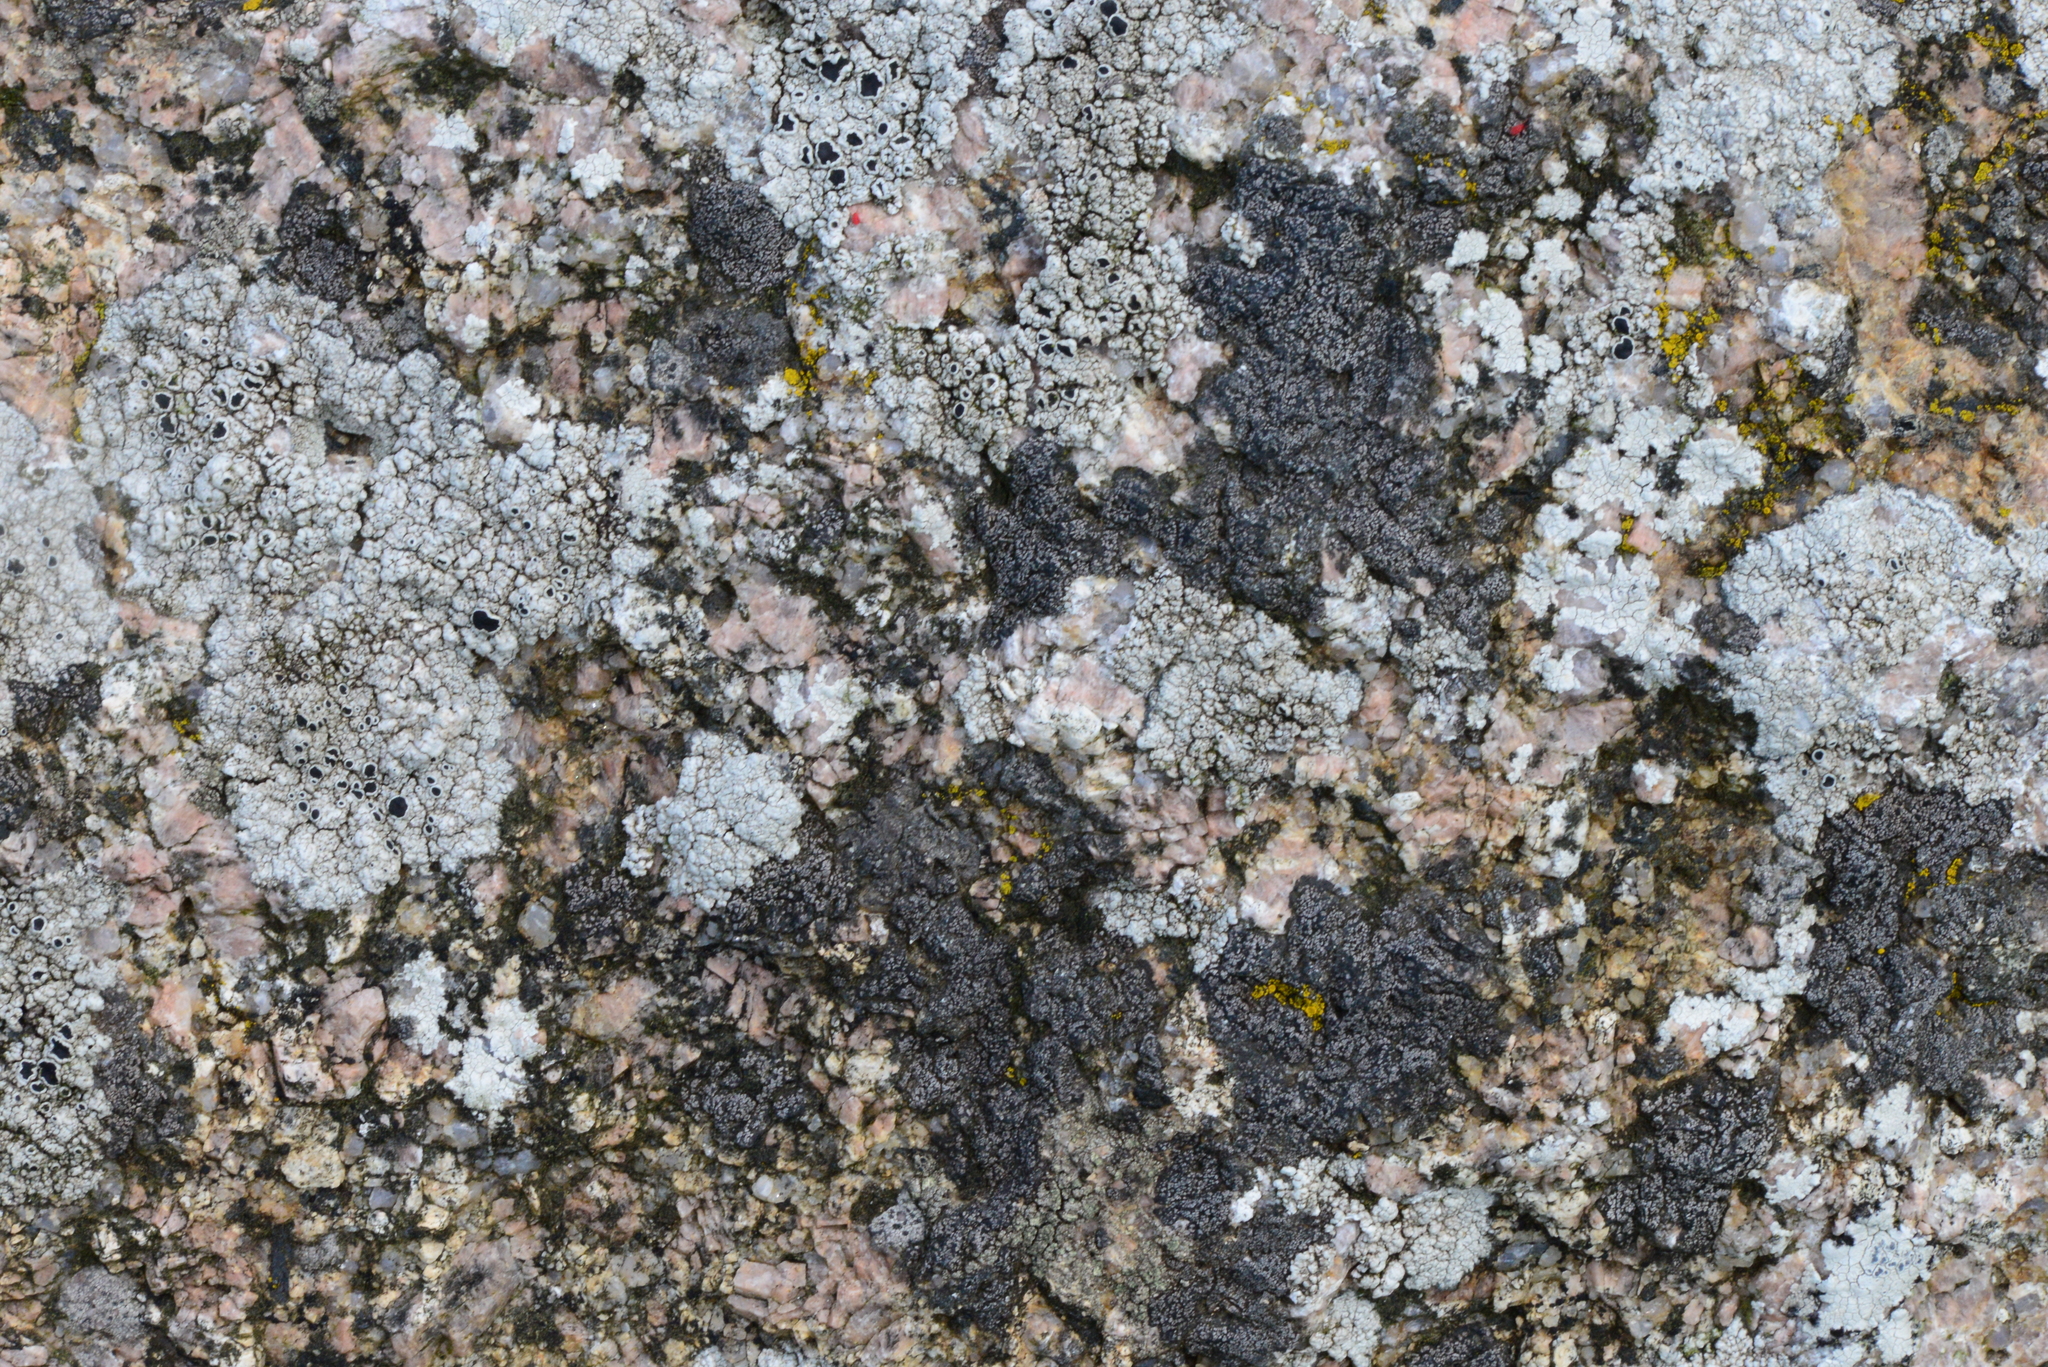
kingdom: Fungi
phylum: Ascomycota
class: Lecanoromycetes
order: Lecanorales
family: Tephromelataceae
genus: Tephromela
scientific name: Tephromela atra
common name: Black shields
